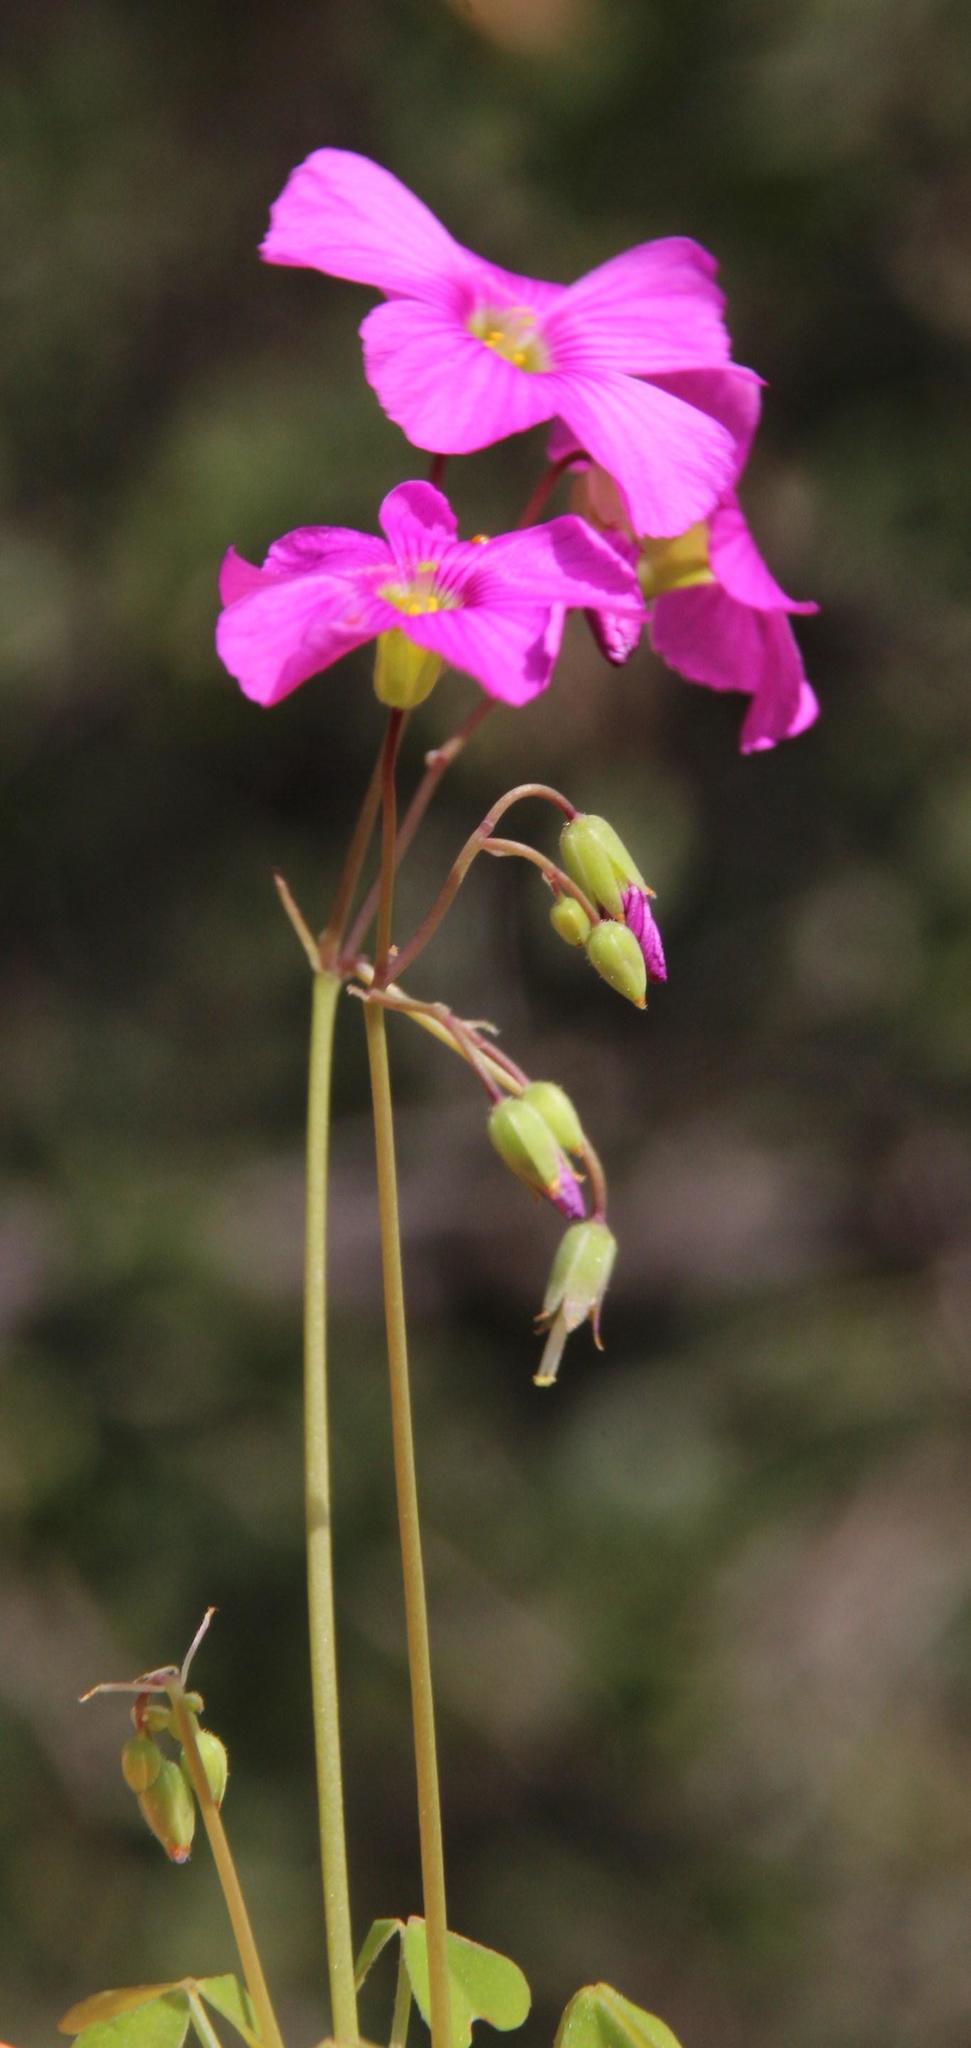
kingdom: Plantae
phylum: Tracheophyta
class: Magnoliopsida
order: Oxalidales
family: Oxalidaceae
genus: Oxalis
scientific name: Oxalis rosea
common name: Annual pink-sorrel
